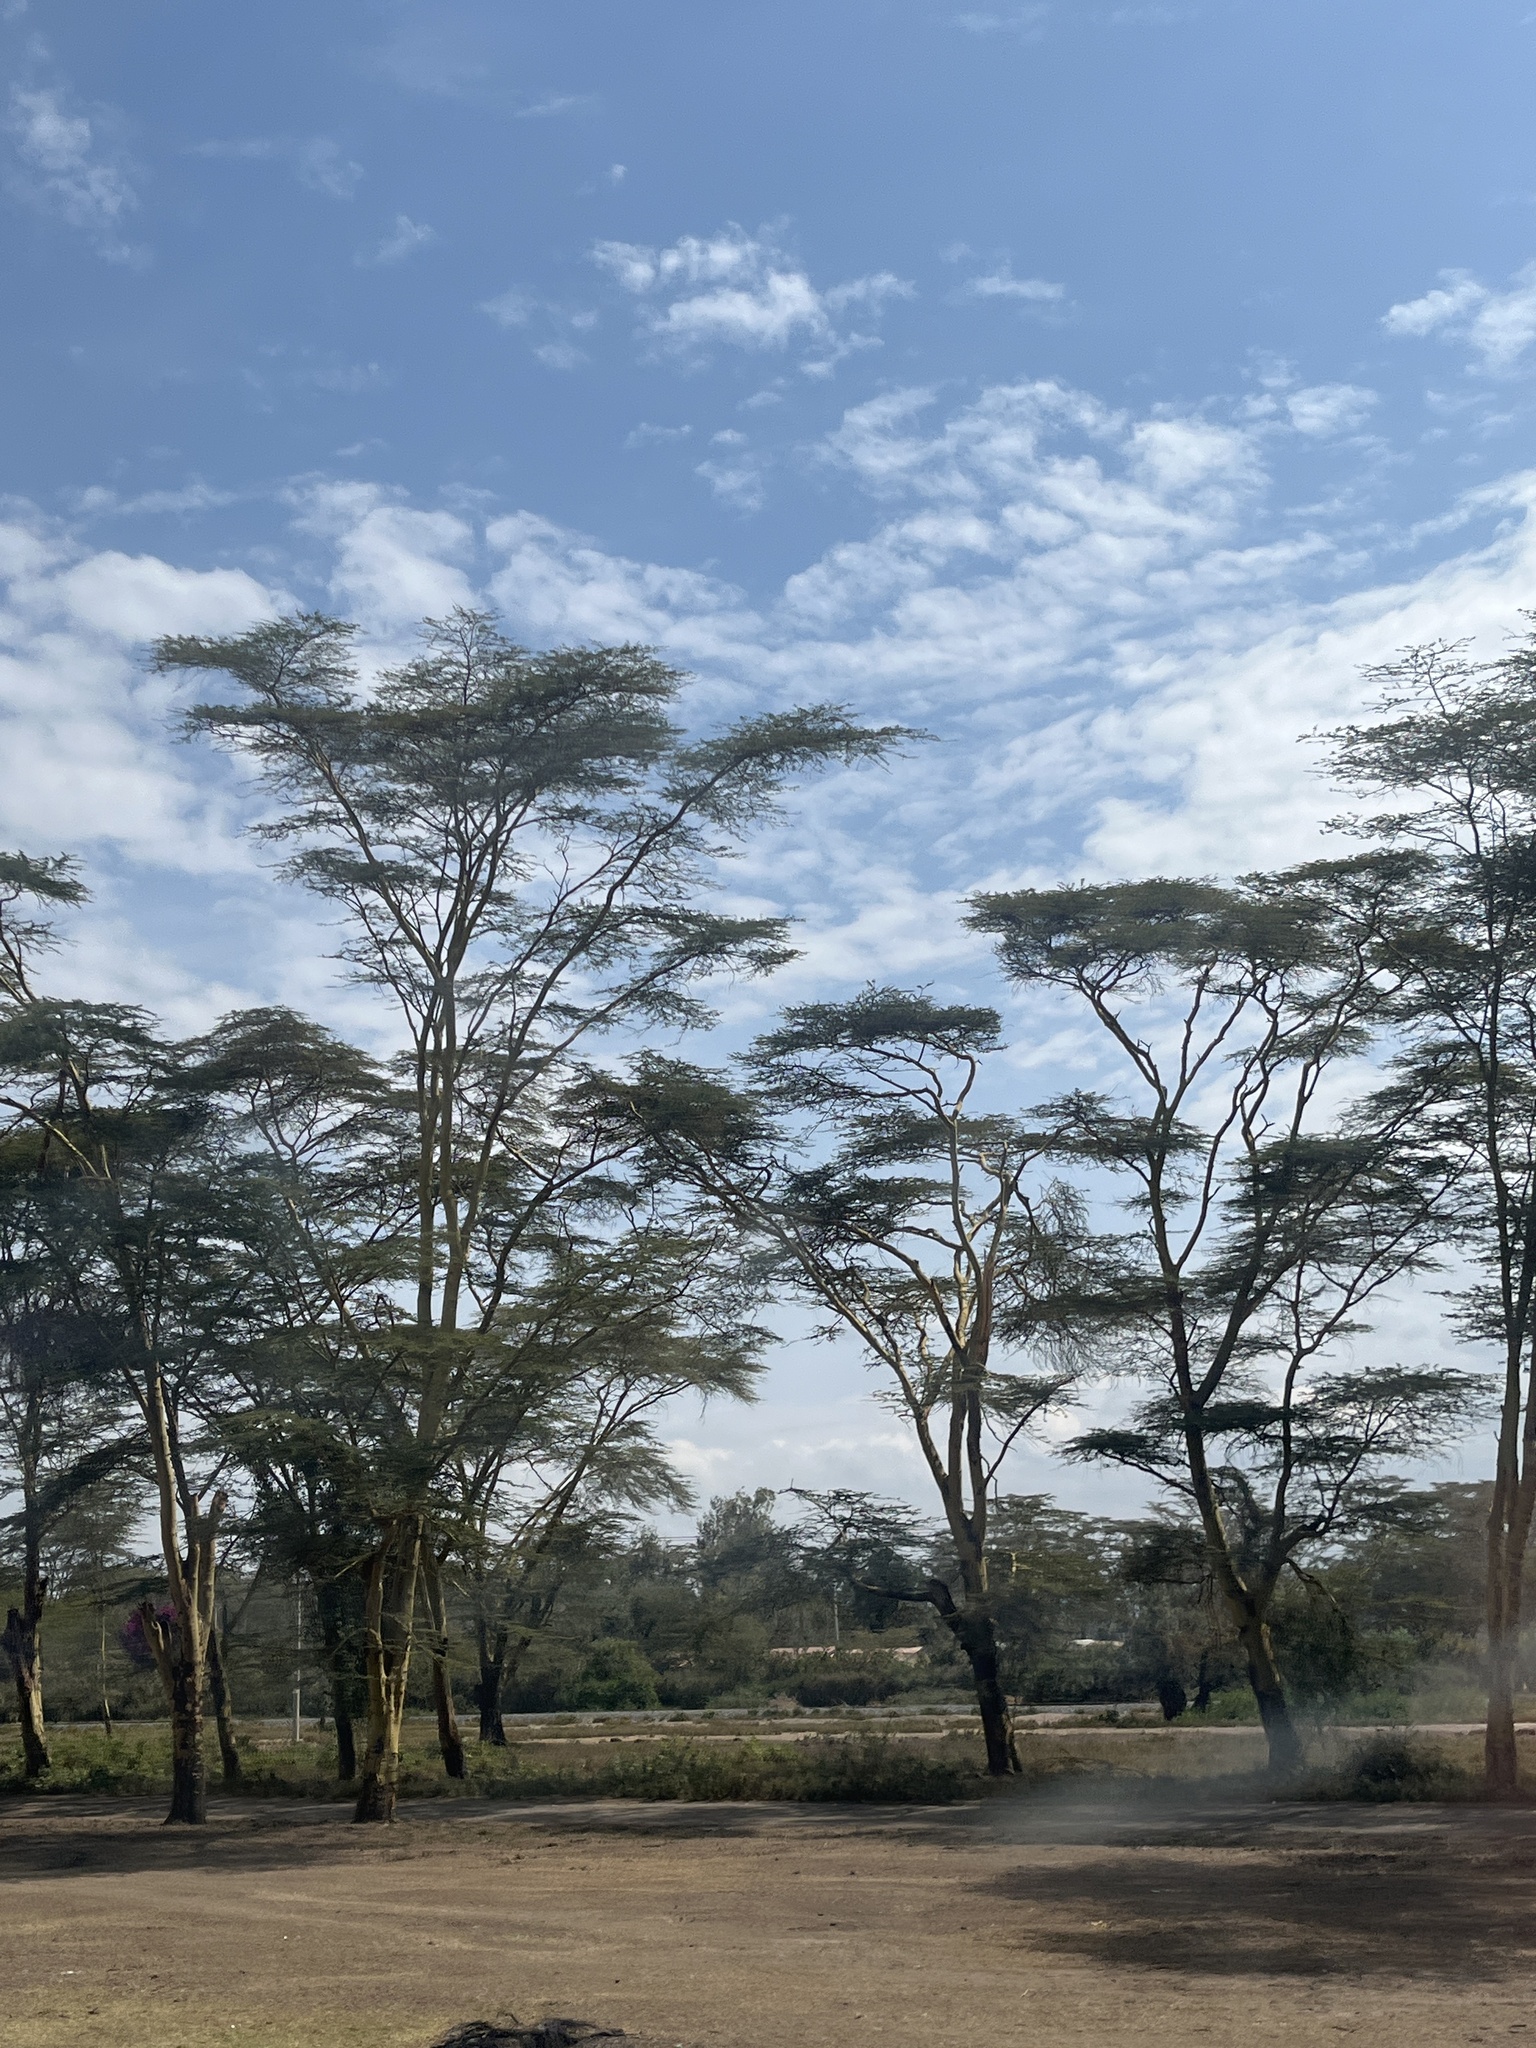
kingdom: Plantae
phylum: Tracheophyta
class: Magnoliopsida
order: Fabales
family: Fabaceae
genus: Vachellia
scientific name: Vachellia xanthophloea
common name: Fever tree
